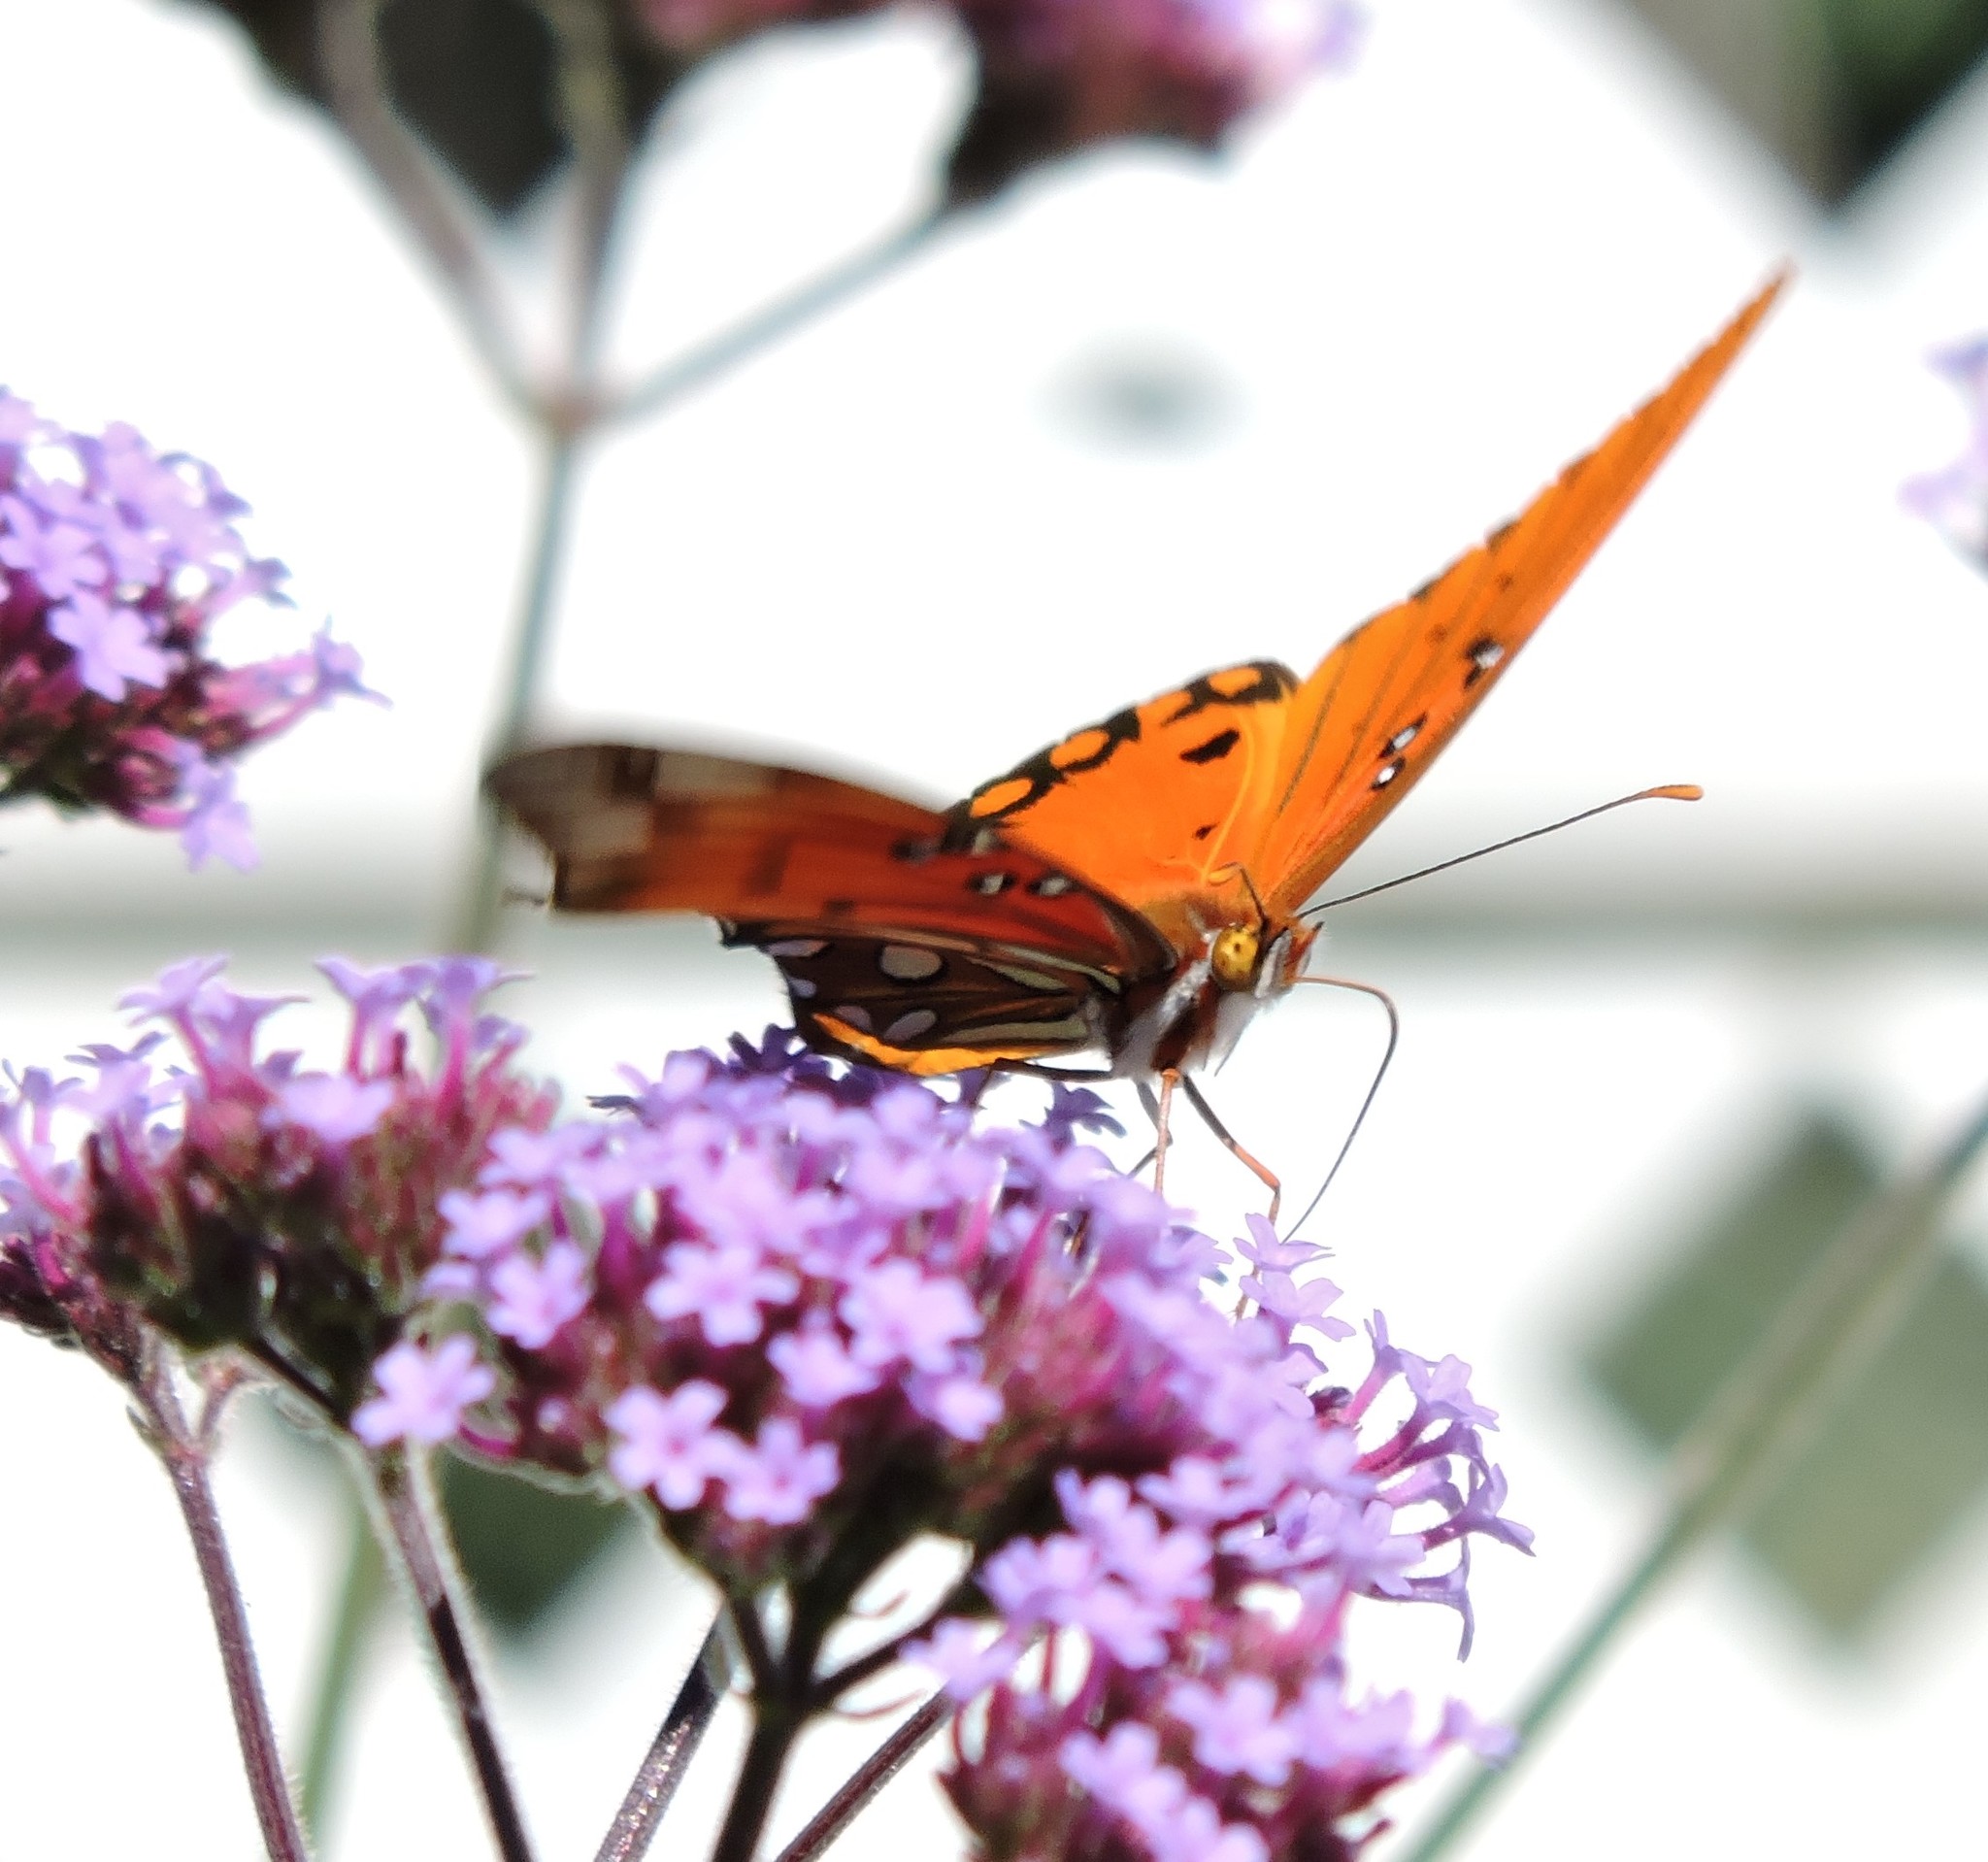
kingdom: Animalia
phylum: Arthropoda
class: Insecta
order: Lepidoptera
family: Nymphalidae
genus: Dione
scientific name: Dione vanillae
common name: Gulf fritillary
